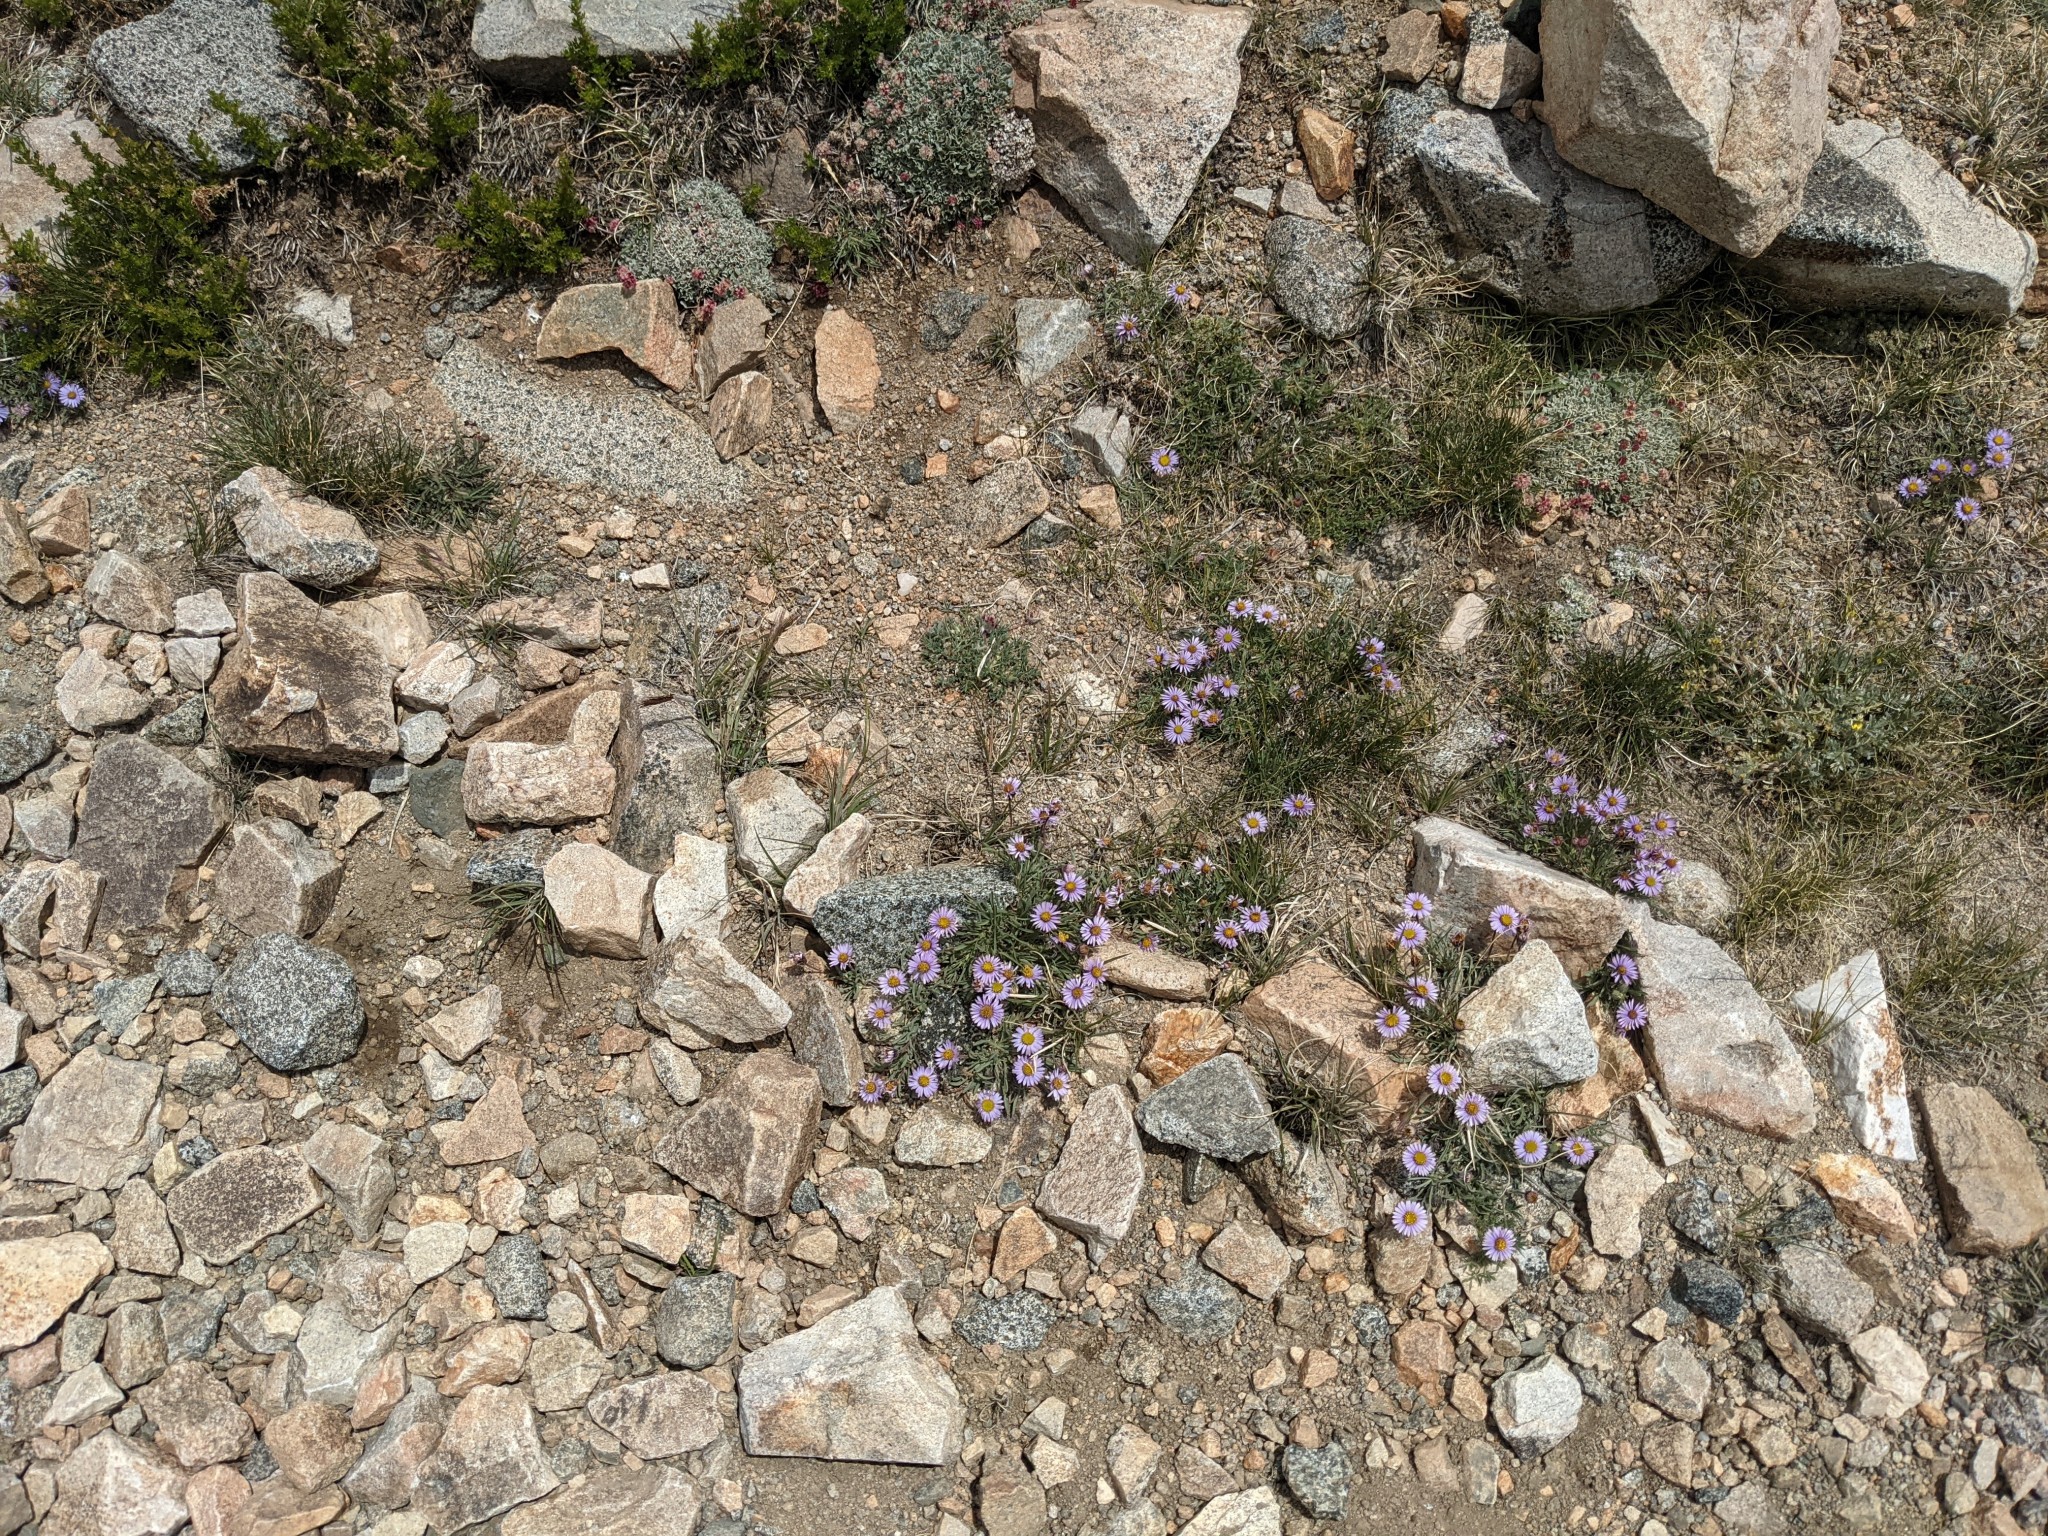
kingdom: Plantae
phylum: Tracheophyta
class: Magnoliopsida
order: Asterales
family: Asteraceae
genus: Erigeron
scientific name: Erigeron pygmaeus
